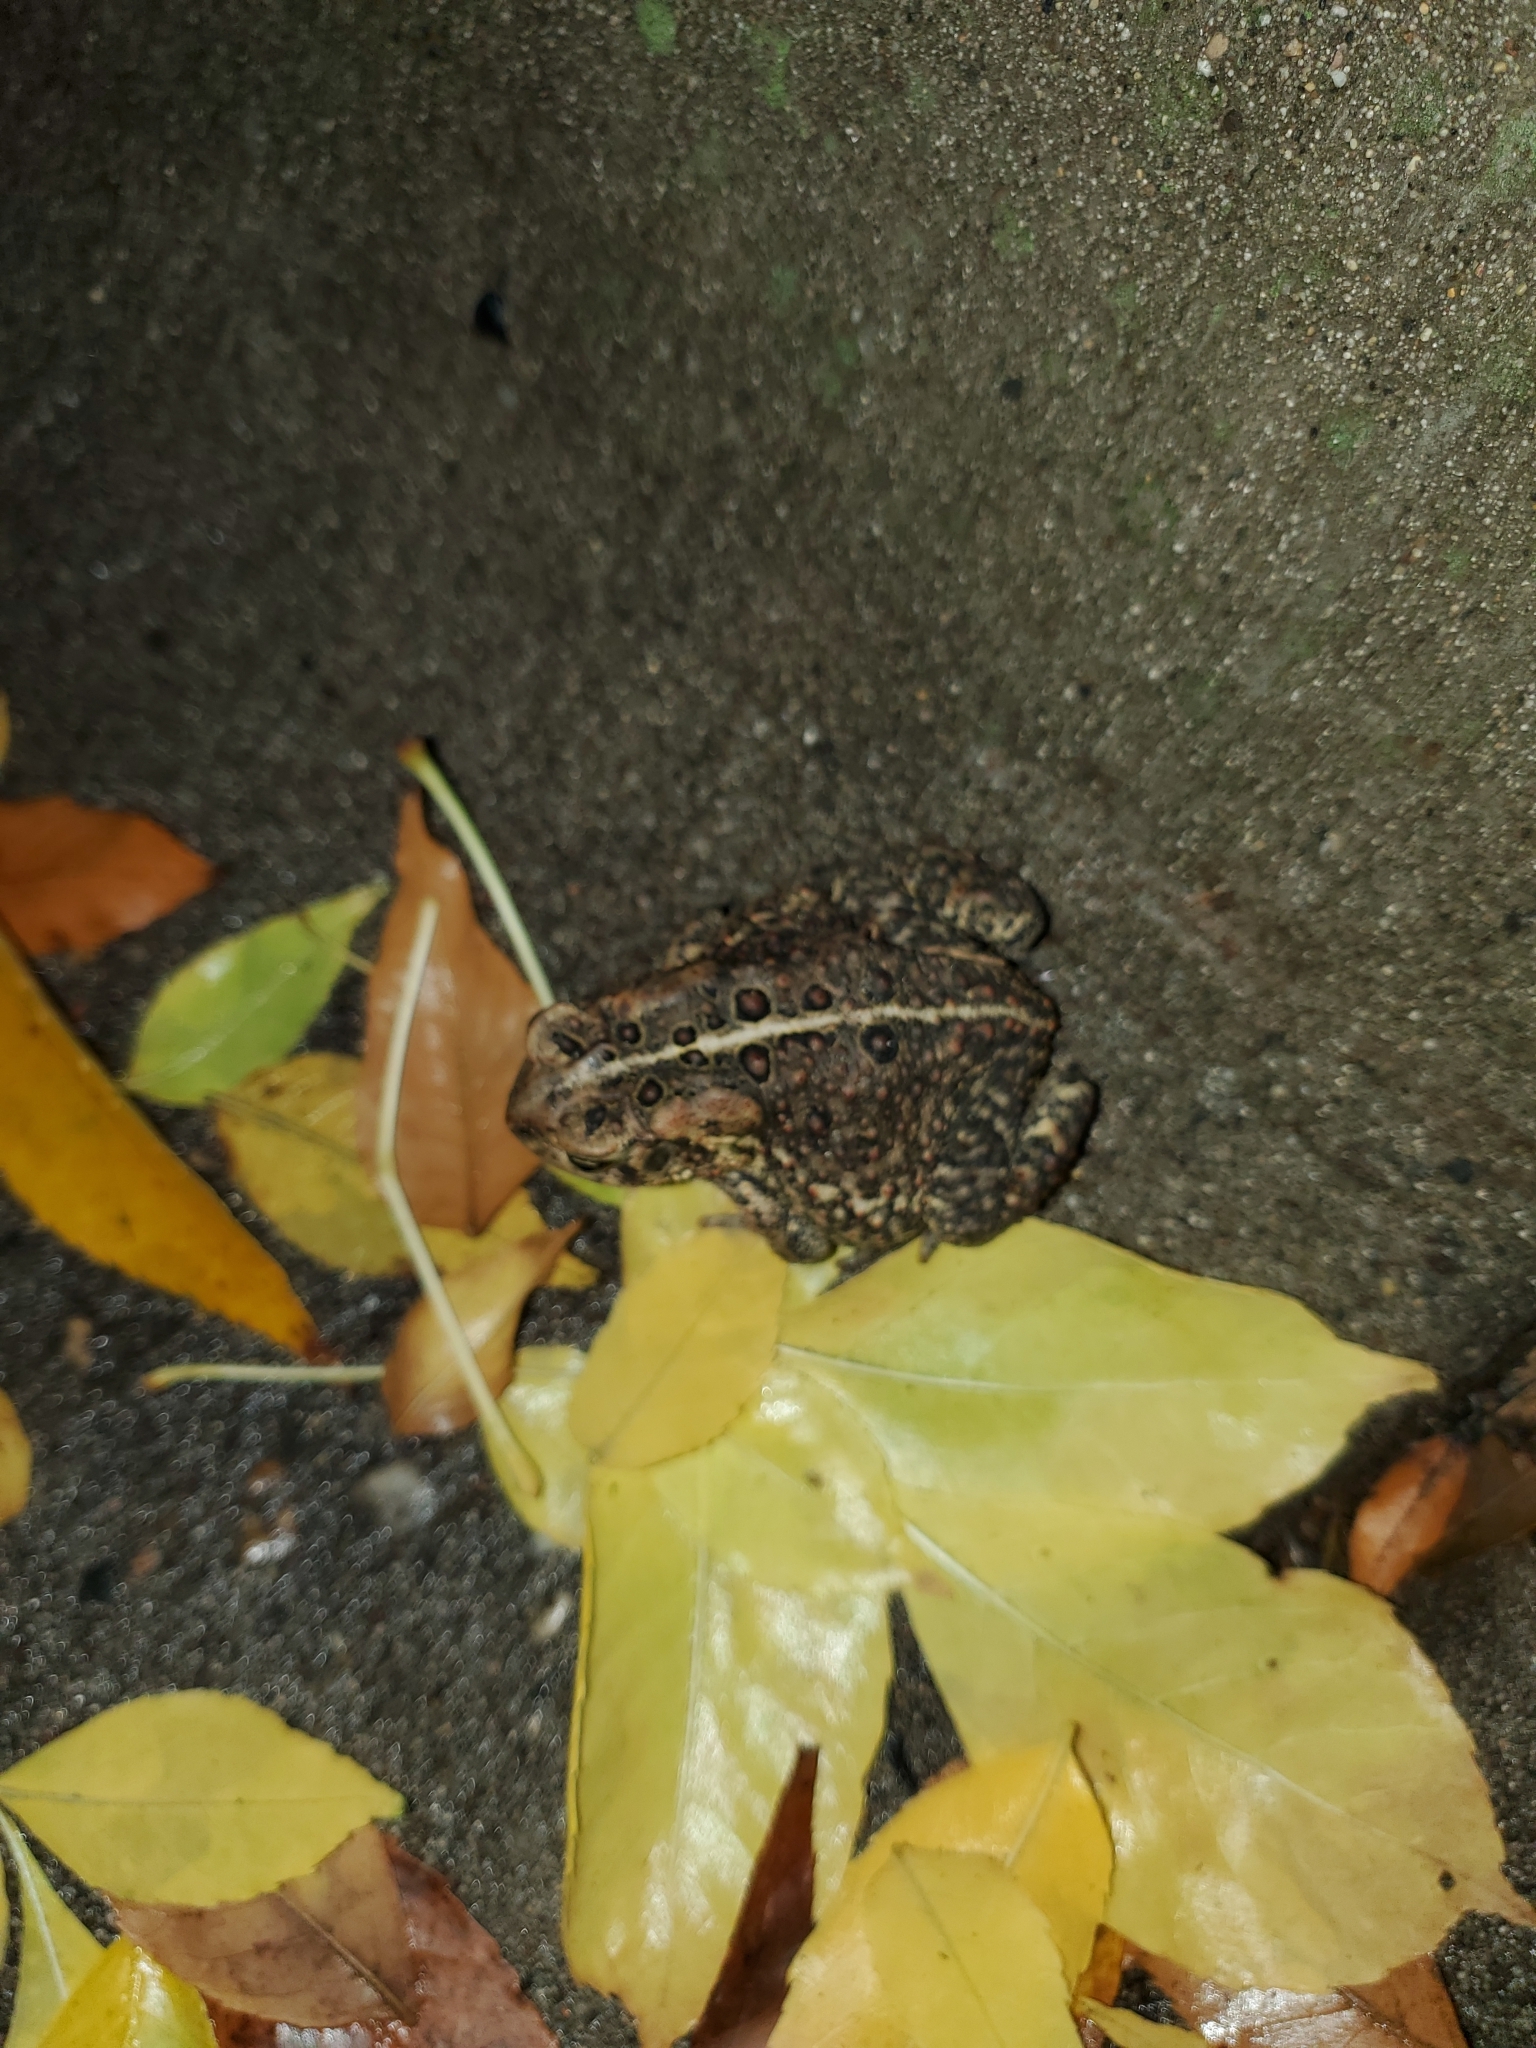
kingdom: Animalia
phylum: Chordata
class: Amphibia
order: Anura
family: Bufonidae
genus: Anaxyrus
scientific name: Anaxyrus americanus
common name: American toad
